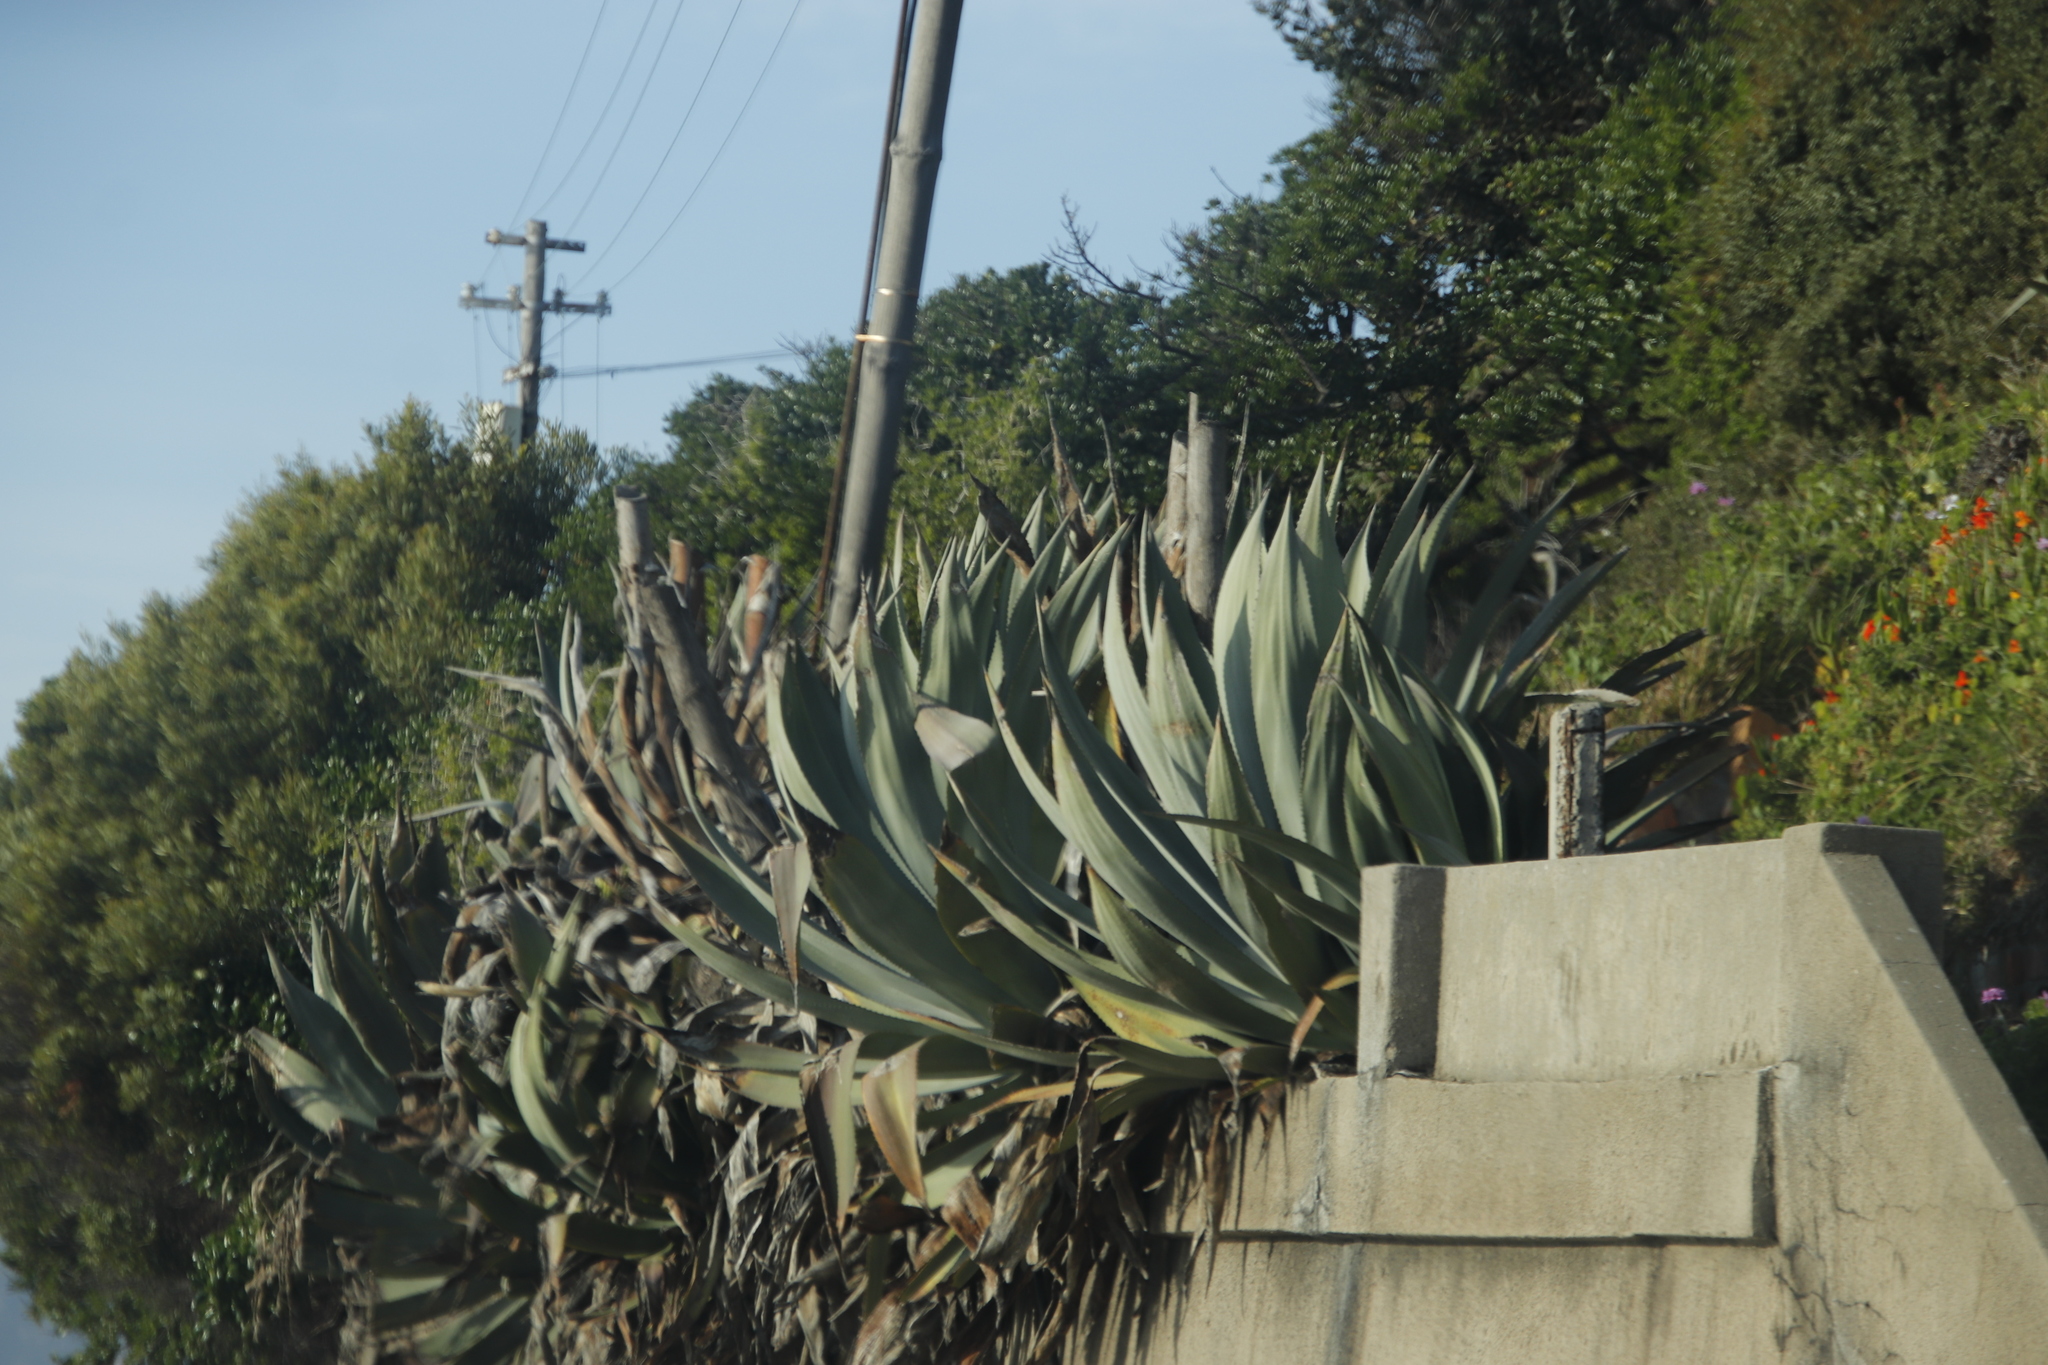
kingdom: Plantae
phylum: Tracheophyta
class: Liliopsida
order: Asparagales
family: Asparagaceae
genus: Agave
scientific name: Agave americana
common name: Centuryplant
